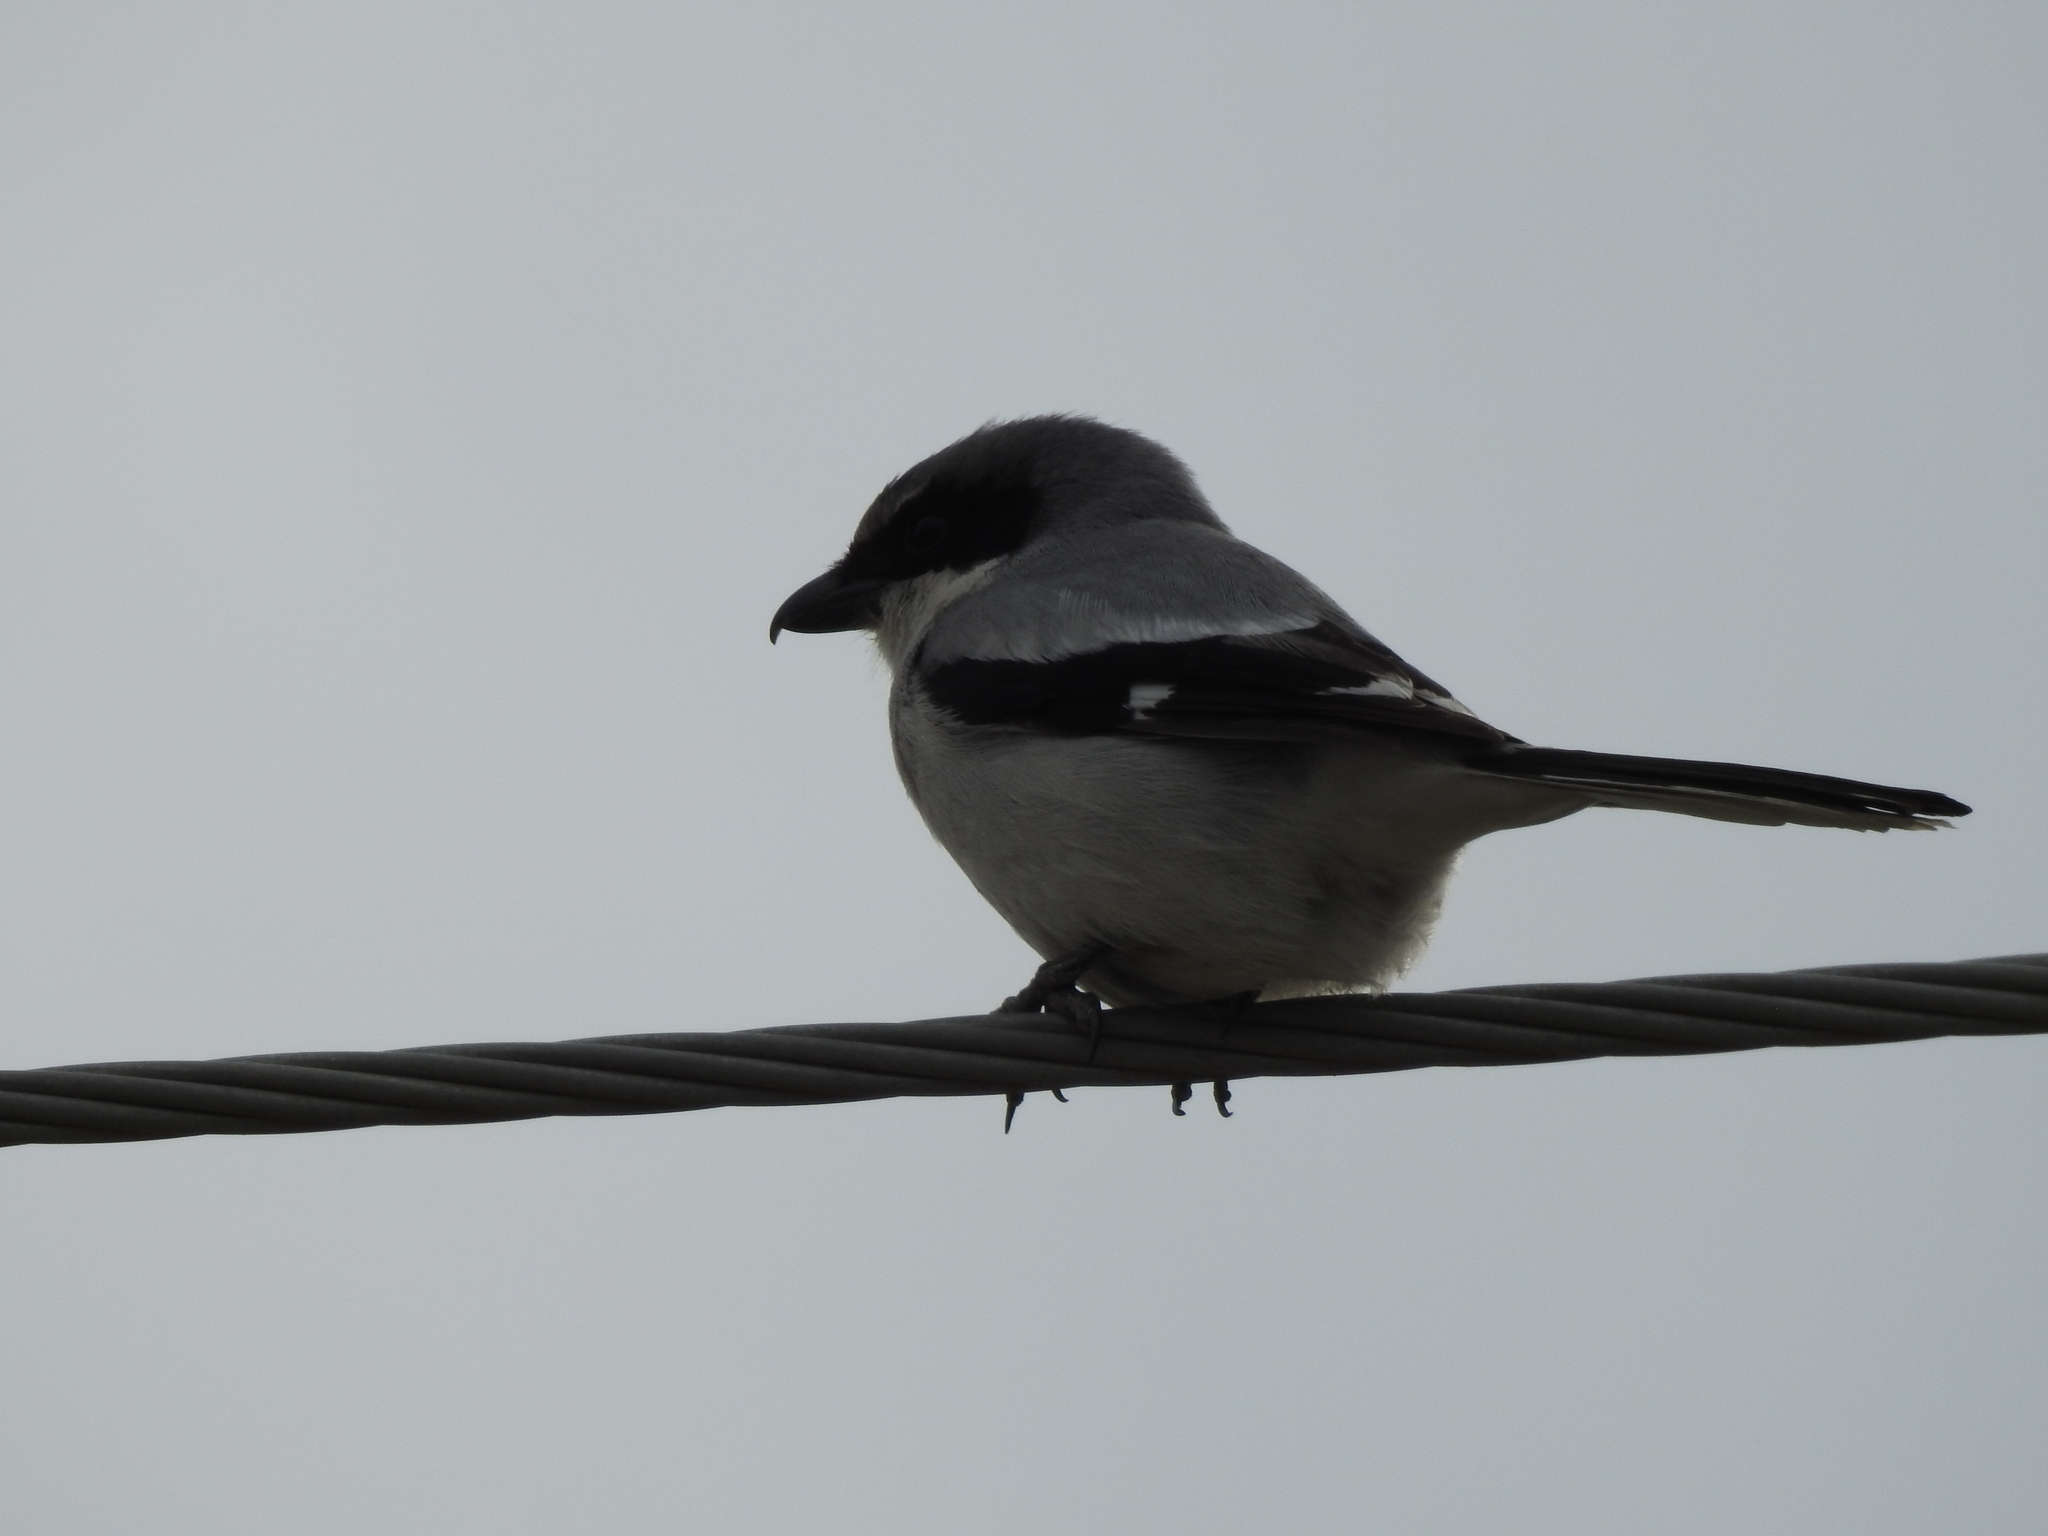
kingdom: Animalia
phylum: Chordata
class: Aves
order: Passeriformes
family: Laniidae
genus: Lanius
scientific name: Lanius ludovicianus
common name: Loggerhead shrike
